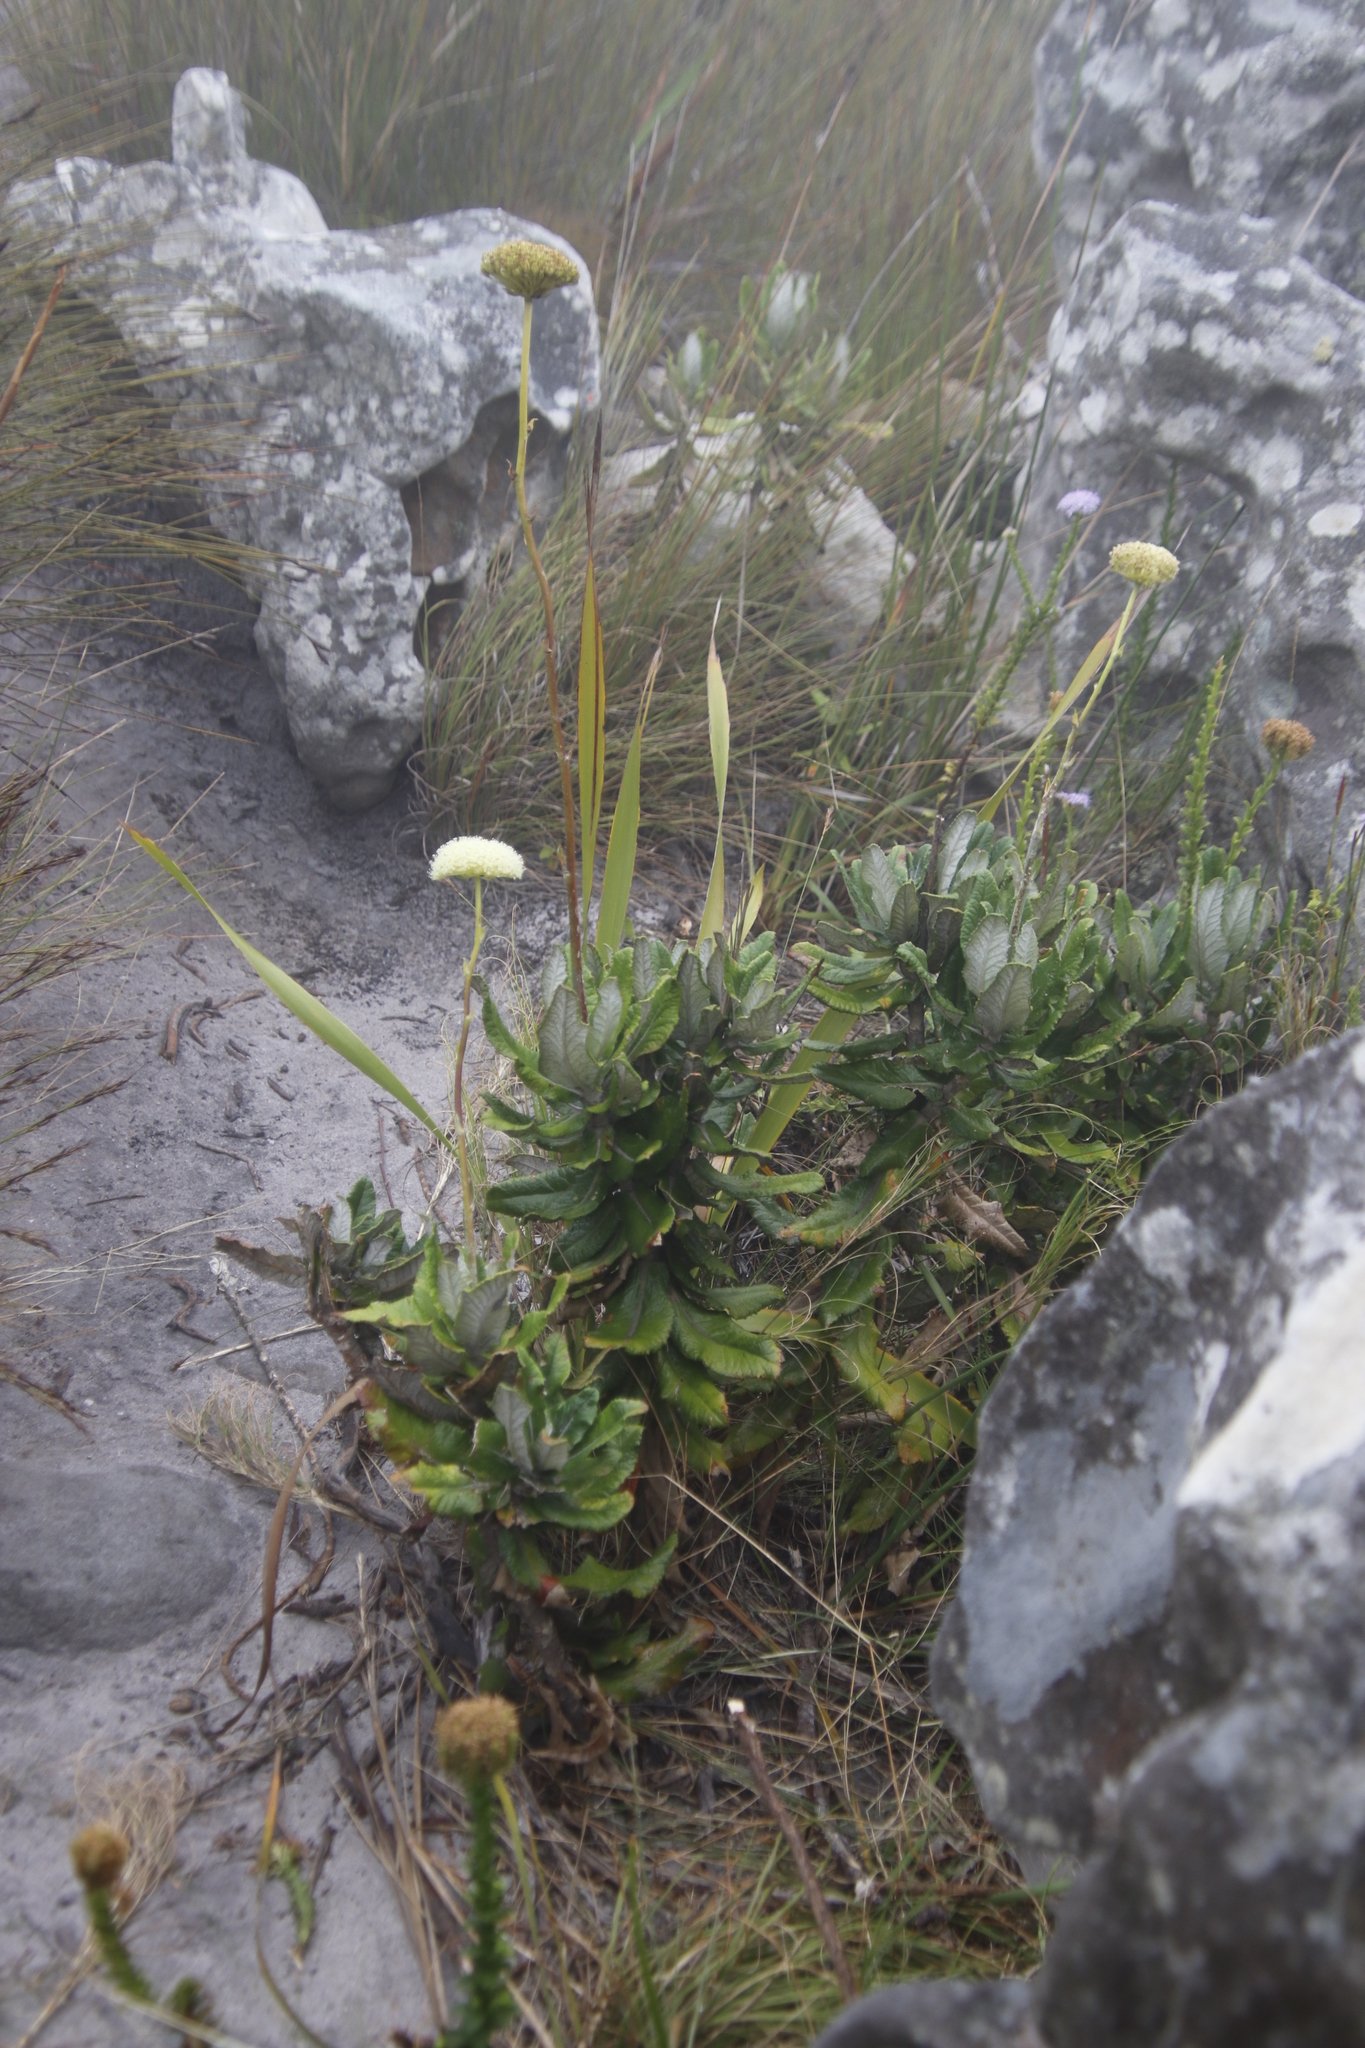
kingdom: Plantae
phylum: Tracheophyta
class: Magnoliopsida
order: Apiales
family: Apiaceae
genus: Hermas
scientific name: Hermas villosa
